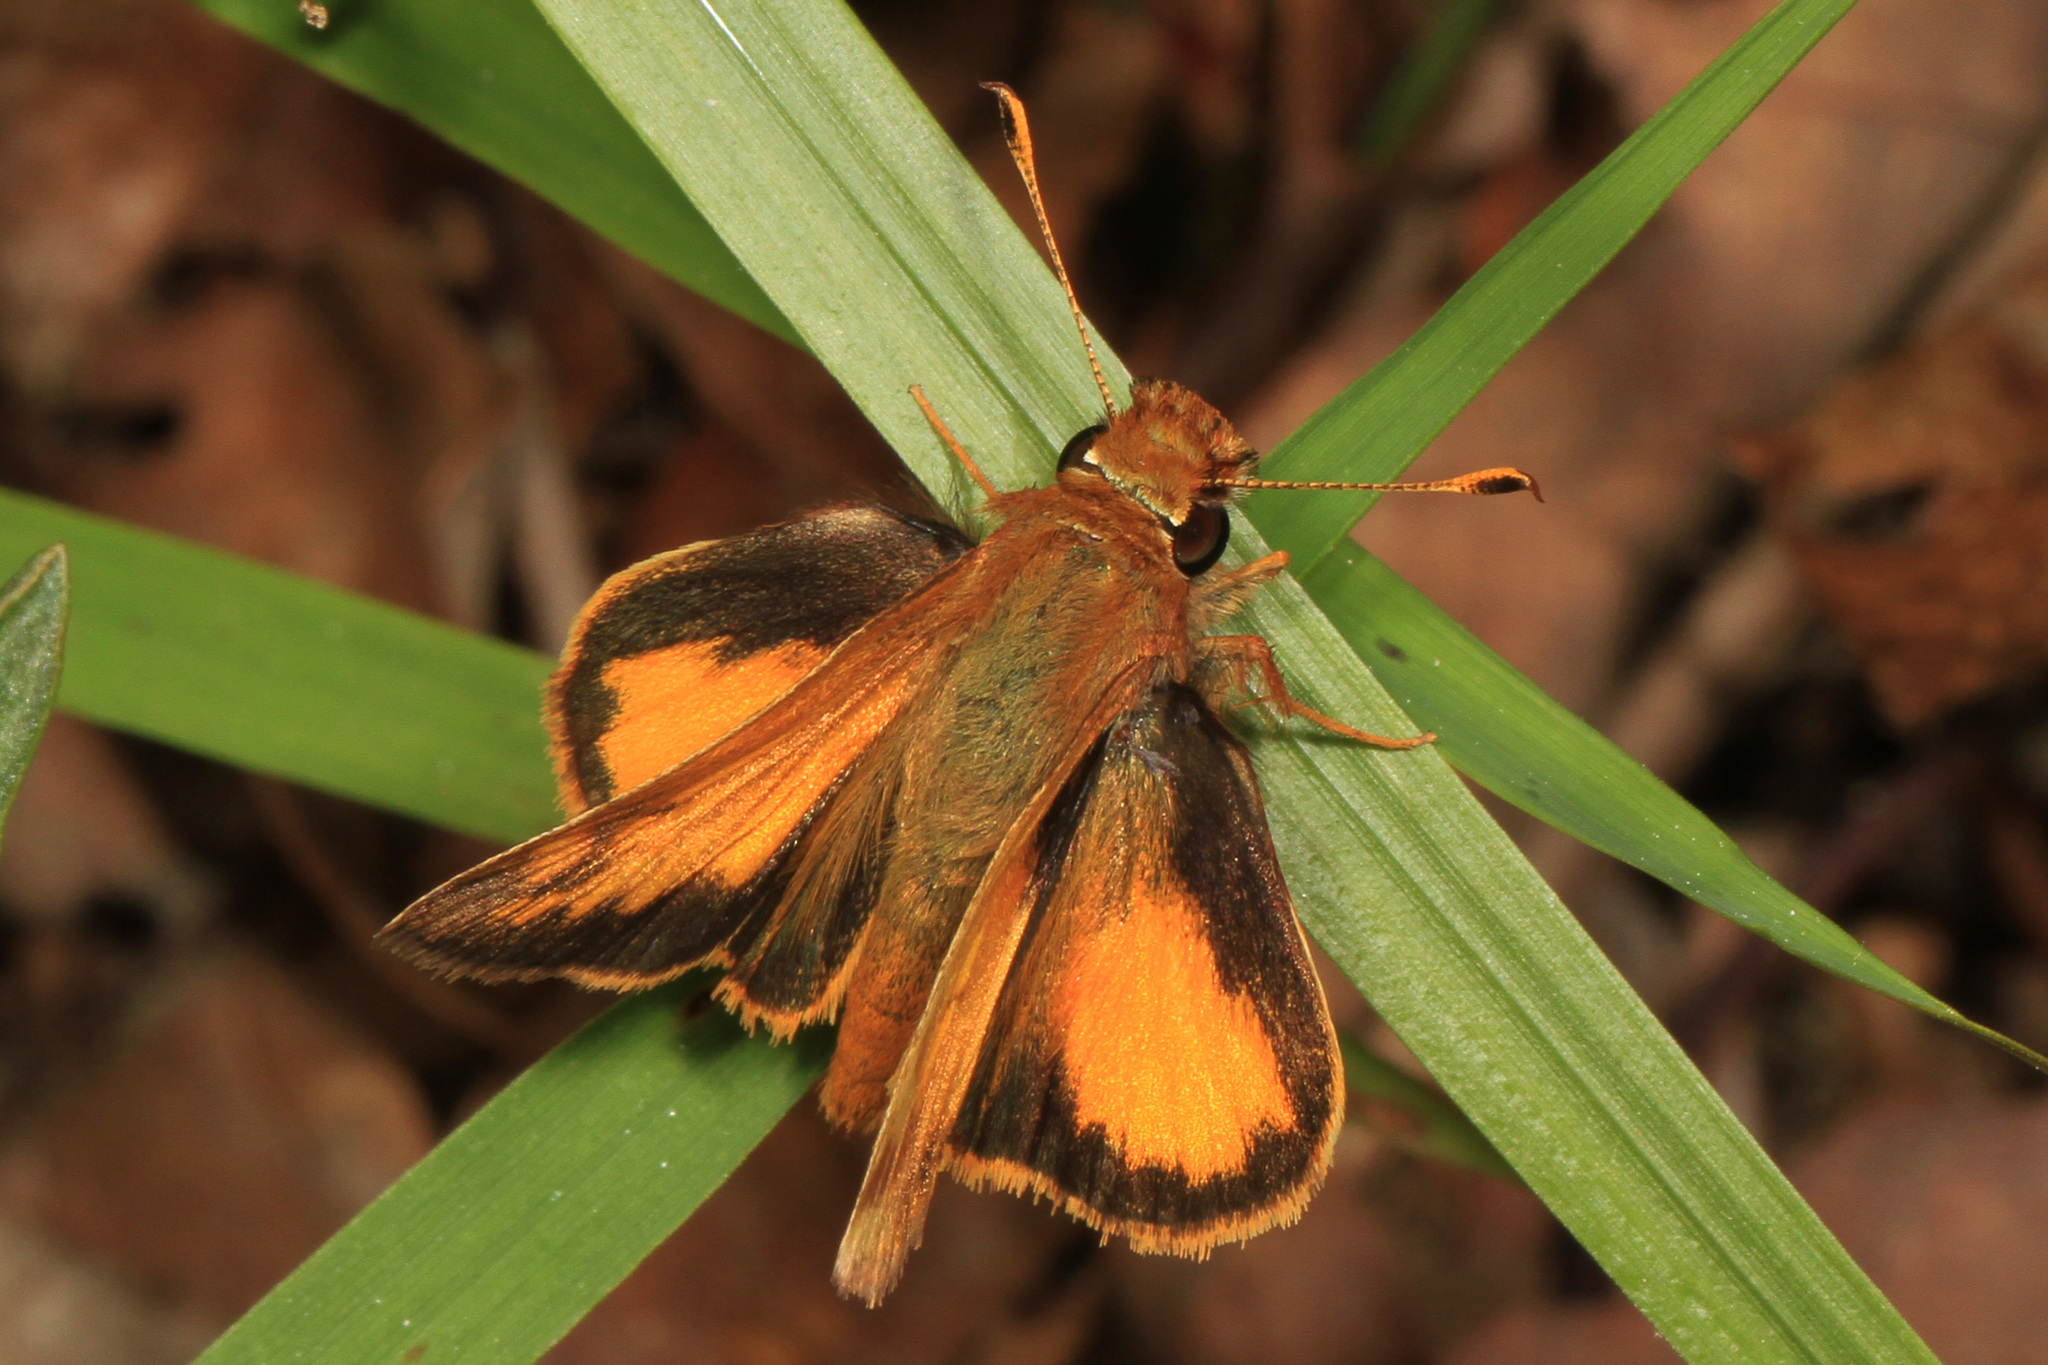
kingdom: Animalia
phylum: Arthropoda
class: Insecta
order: Lepidoptera
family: Hesperiidae
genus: Lon
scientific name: Lon zabulon
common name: Zabulon skipper
